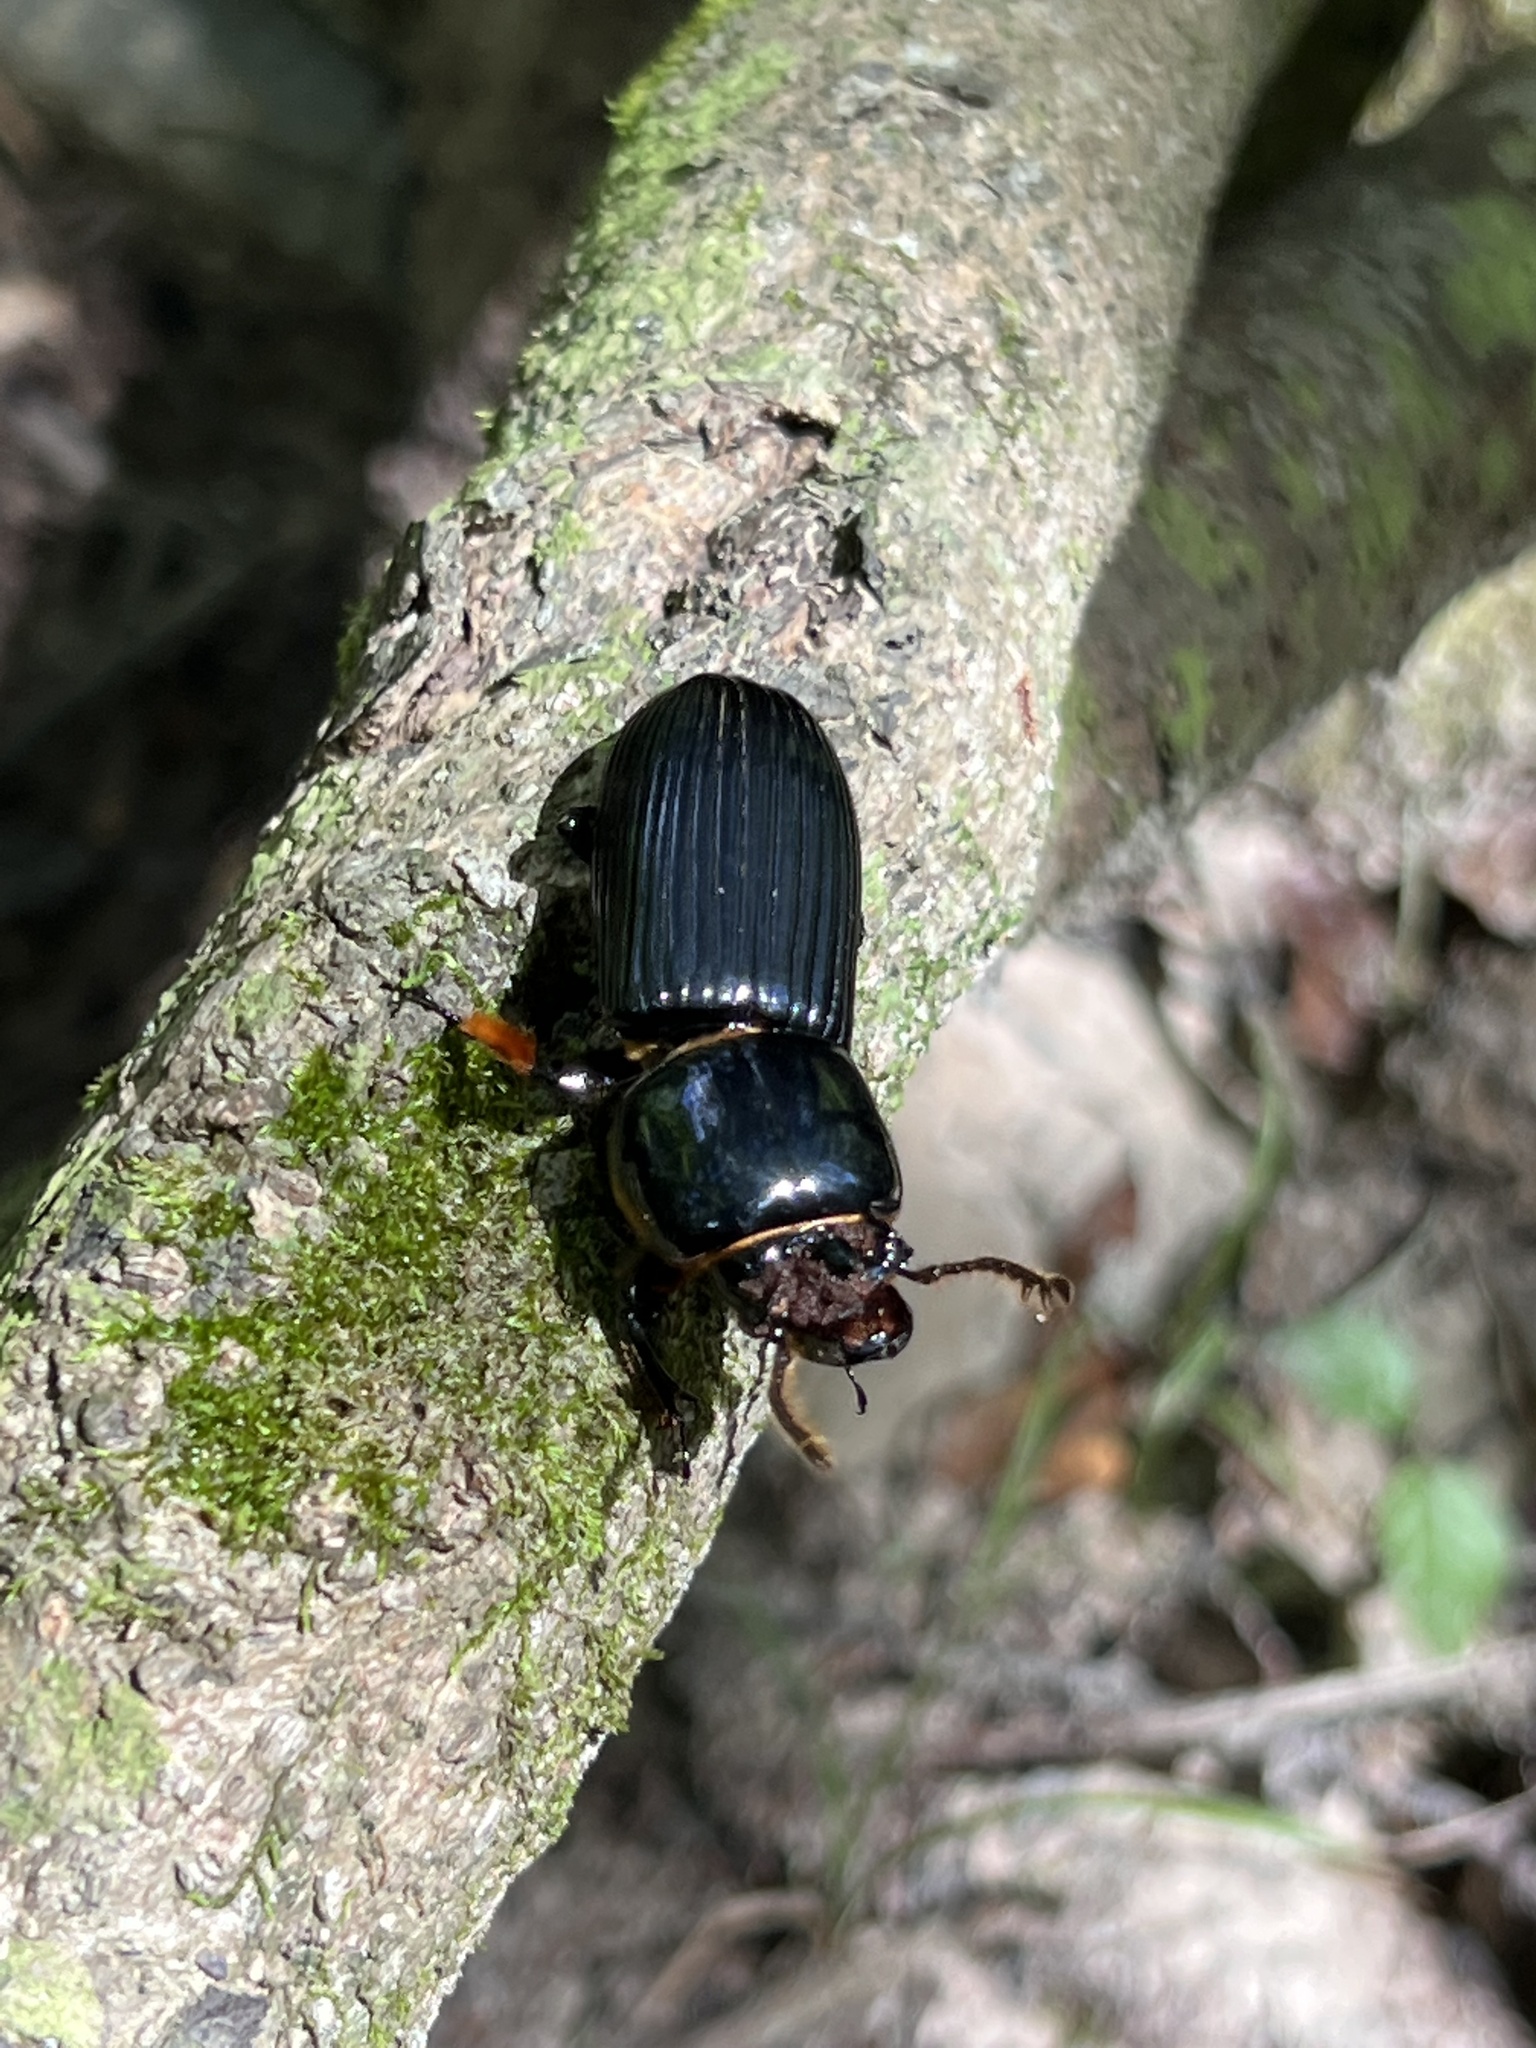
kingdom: Animalia
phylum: Arthropoda
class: Insecta
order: Coleoptera
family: Passalidae
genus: Odontotaenius
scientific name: Odontotaenius disjunctus
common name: Patent leather beetle
